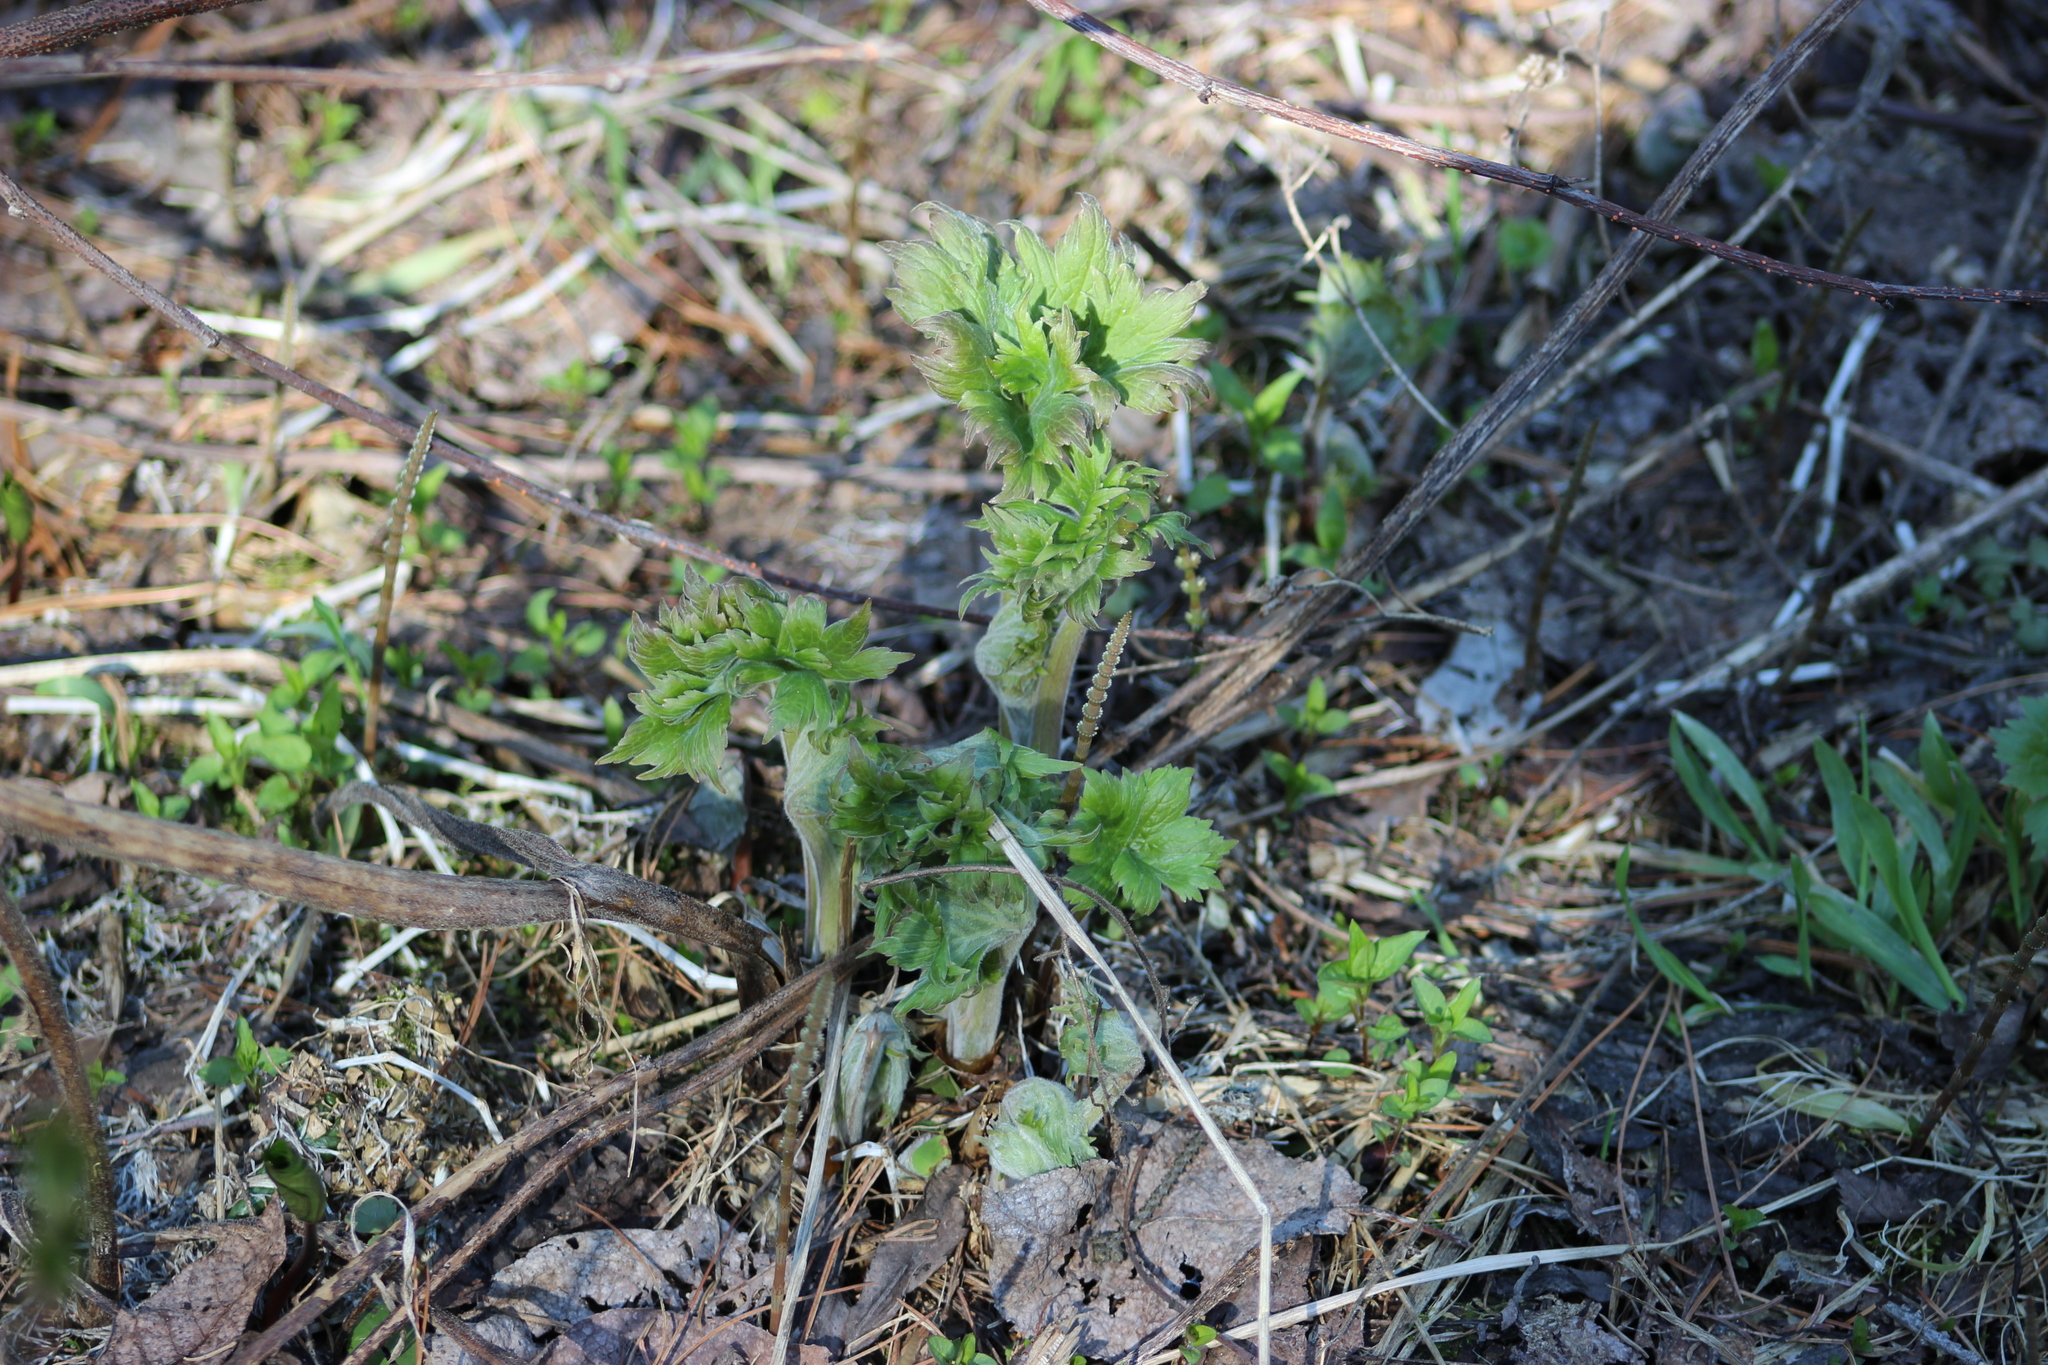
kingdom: Plantae
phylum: Tracheophyta
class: Magnoliopsida
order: Ranunculales
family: Ranunculaceae
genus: Aconitum
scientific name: Aconitum septentrionale
